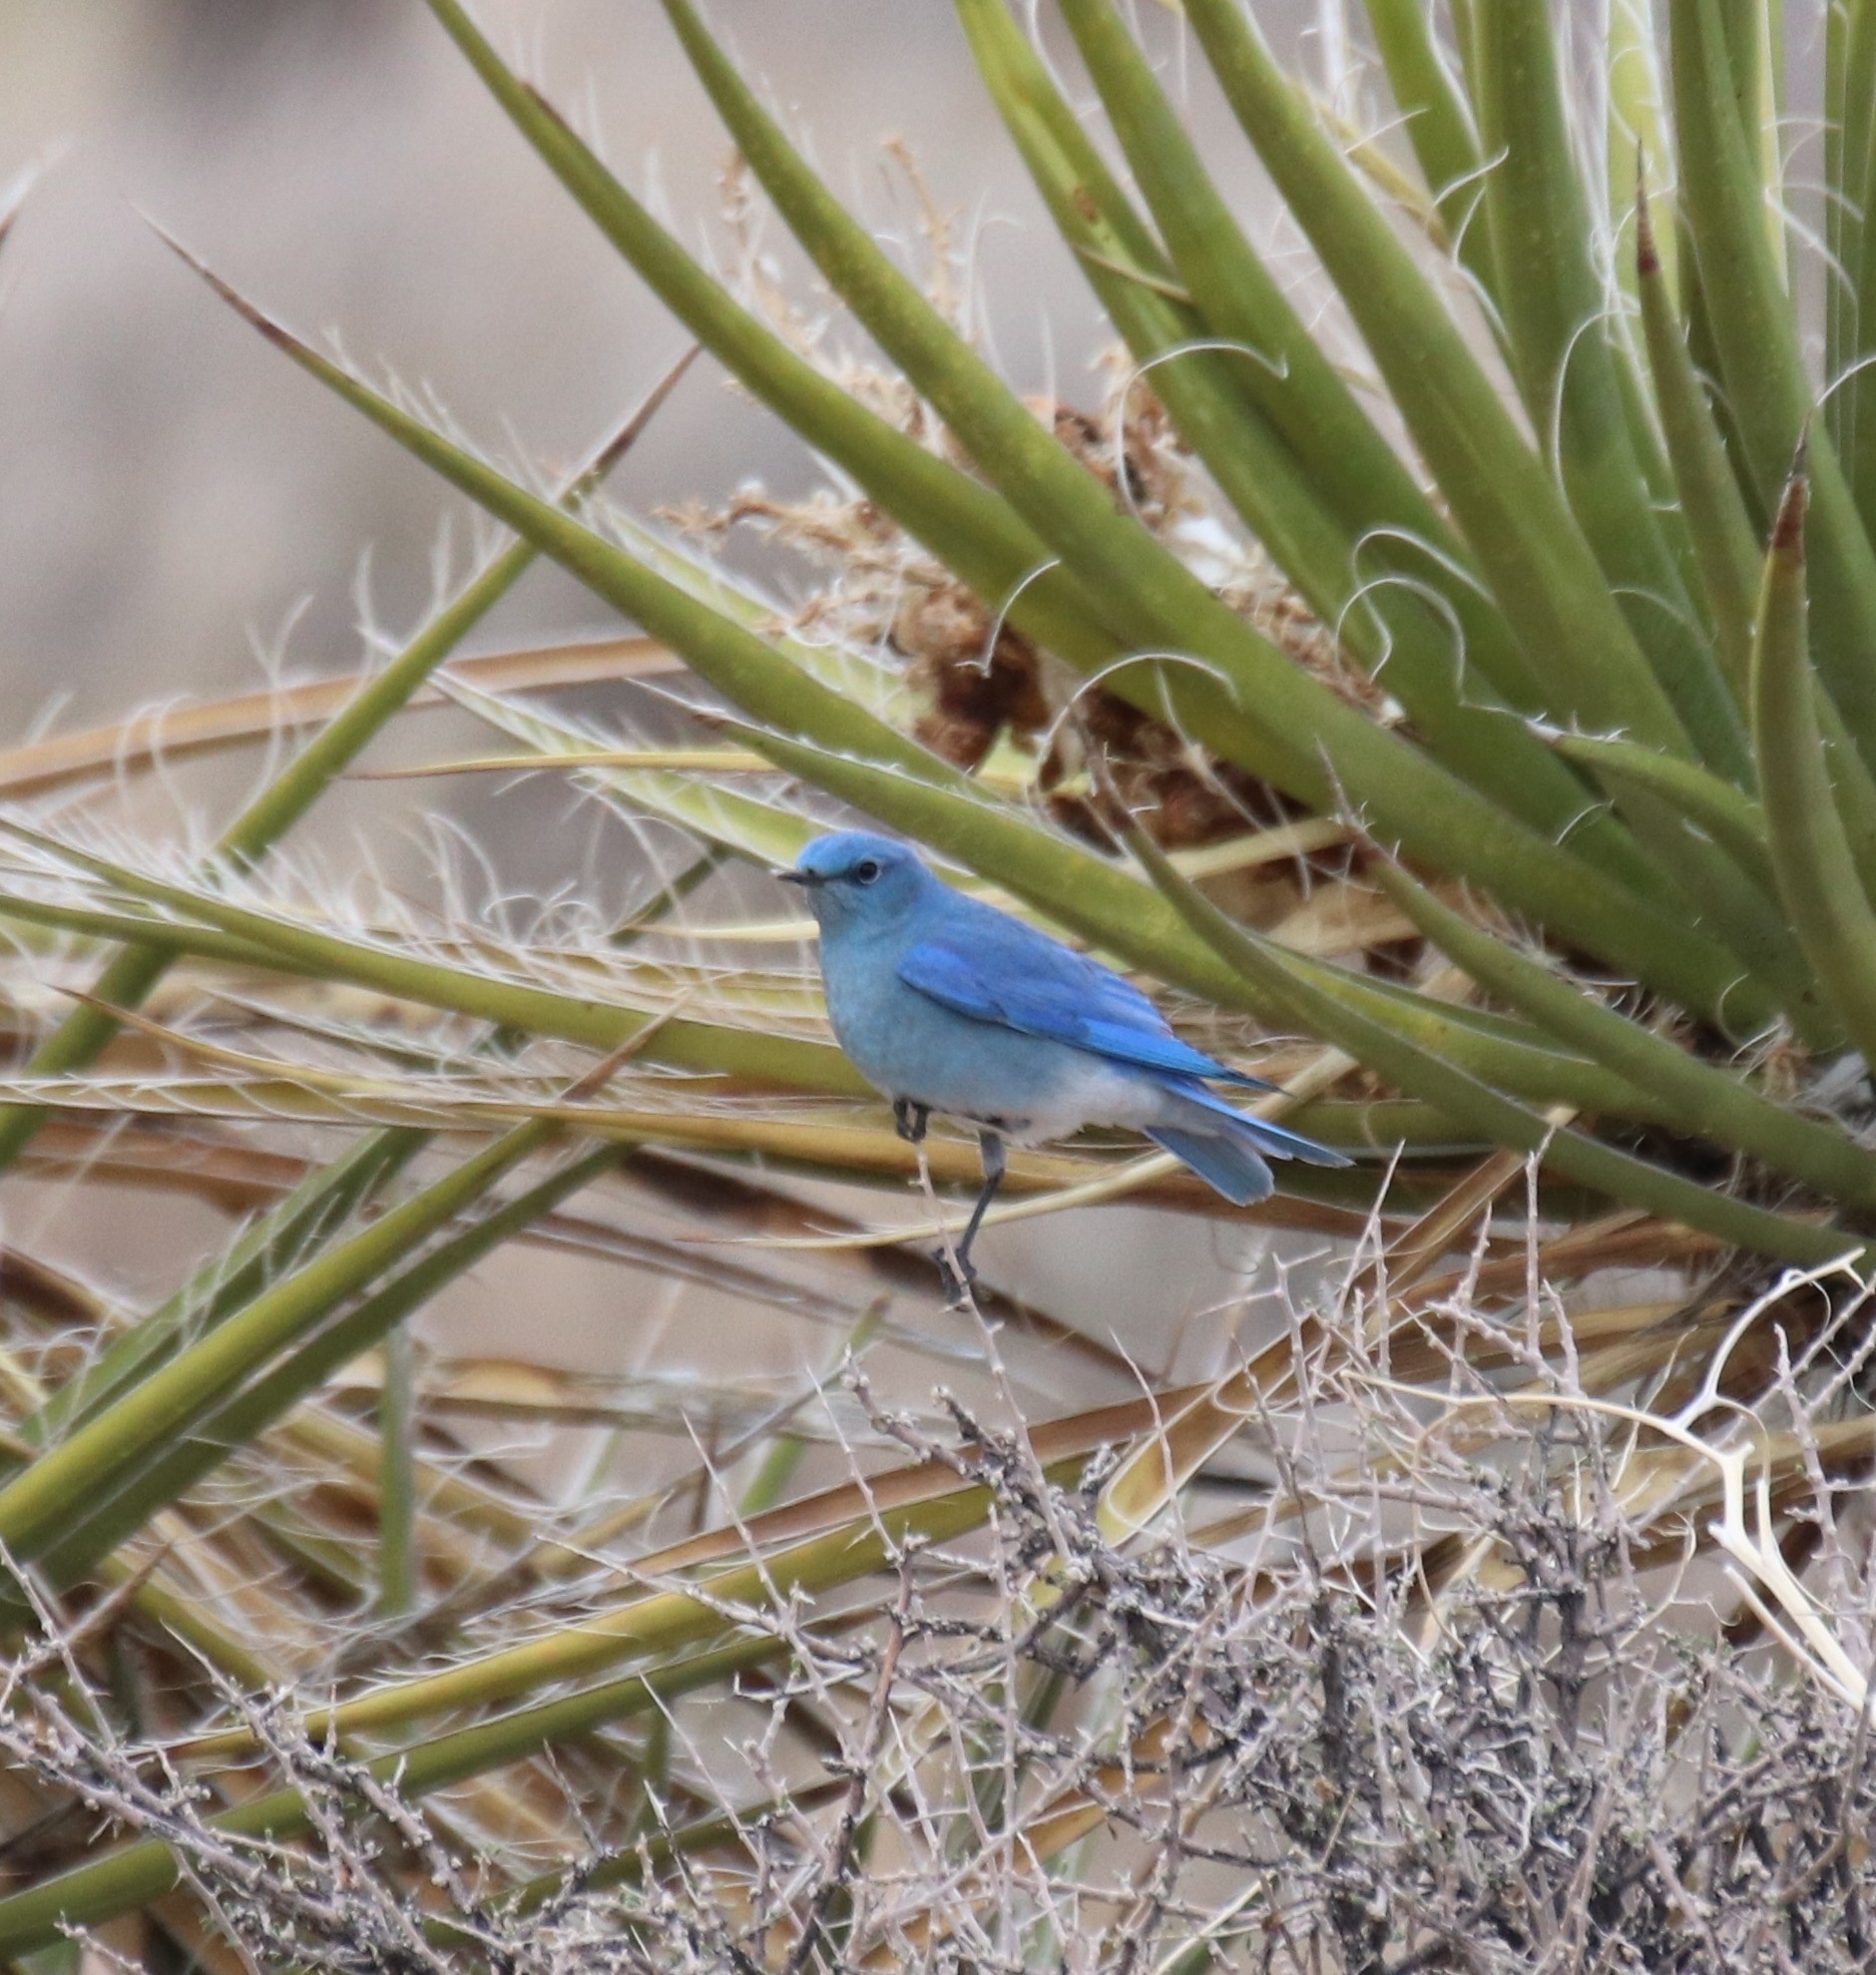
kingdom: Animalia
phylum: Chordata
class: Aves
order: Passeriformes
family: Turdidae
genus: Sialia
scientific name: Sialia currucoides
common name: Mountain bluebird
